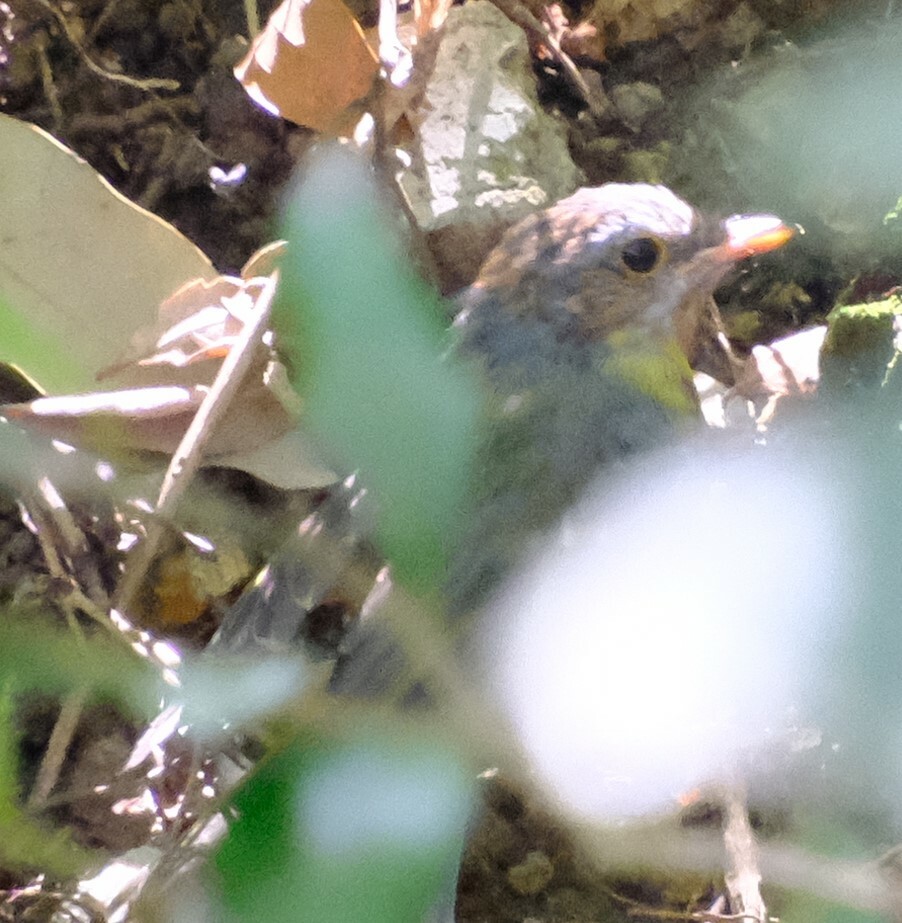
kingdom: Animalia
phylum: Chordata
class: Aves
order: Passeriformes
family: Petroicidae
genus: Eopsaltria
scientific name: Eopsaltria australis
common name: Eastern yellow robin
